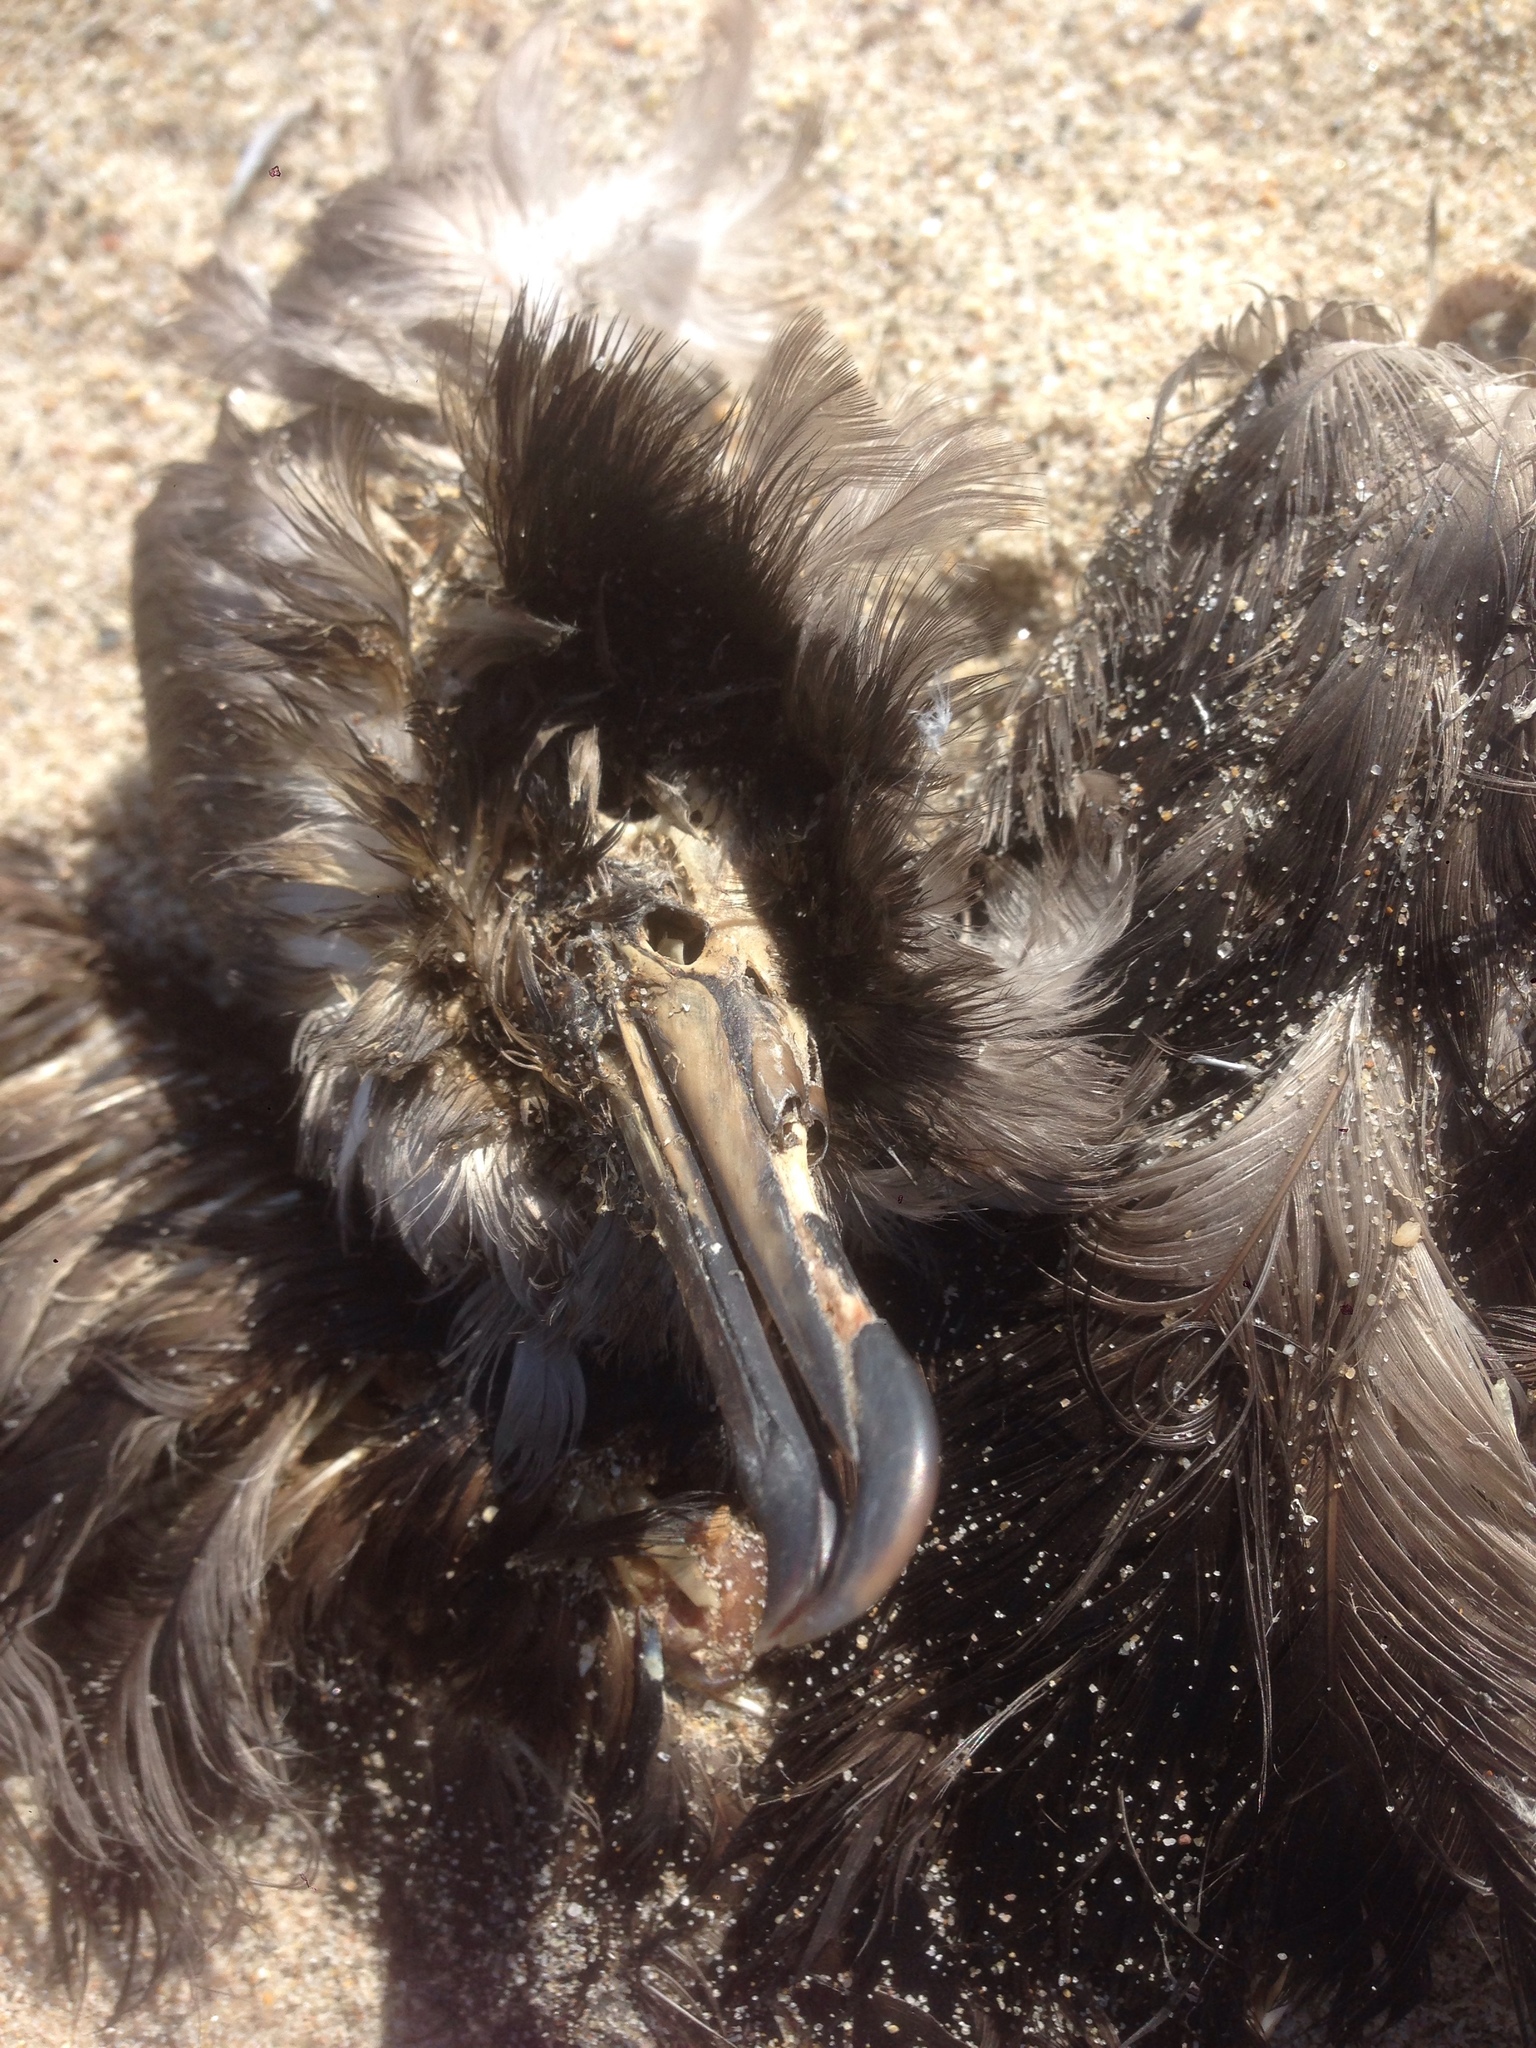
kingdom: Animalia
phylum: Chordata
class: Aves
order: Procellariiformes
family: Procellariidae
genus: Puffinus
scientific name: Puffinus griseus
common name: Sooty shearwater
